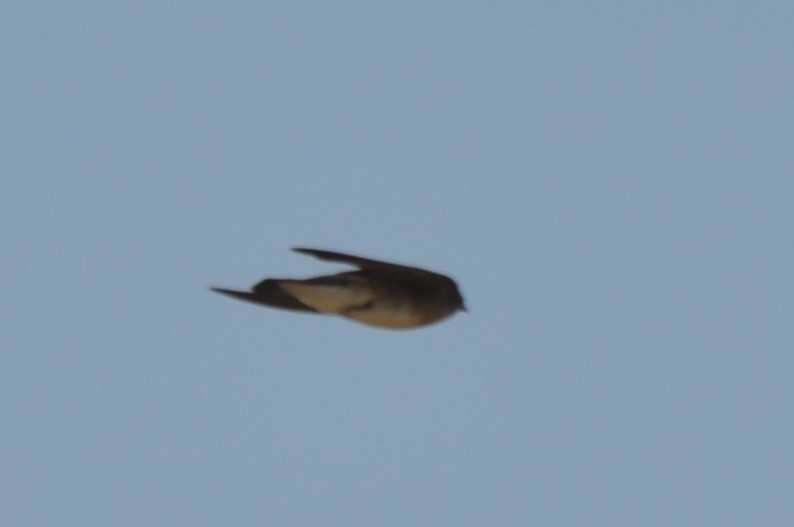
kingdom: Animalia
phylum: Chordata
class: Aves
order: Passeriformes
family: Hirundinidae
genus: Petrochelidon
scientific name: Petrochelidon pyrrhonota
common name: American cliff swallow
